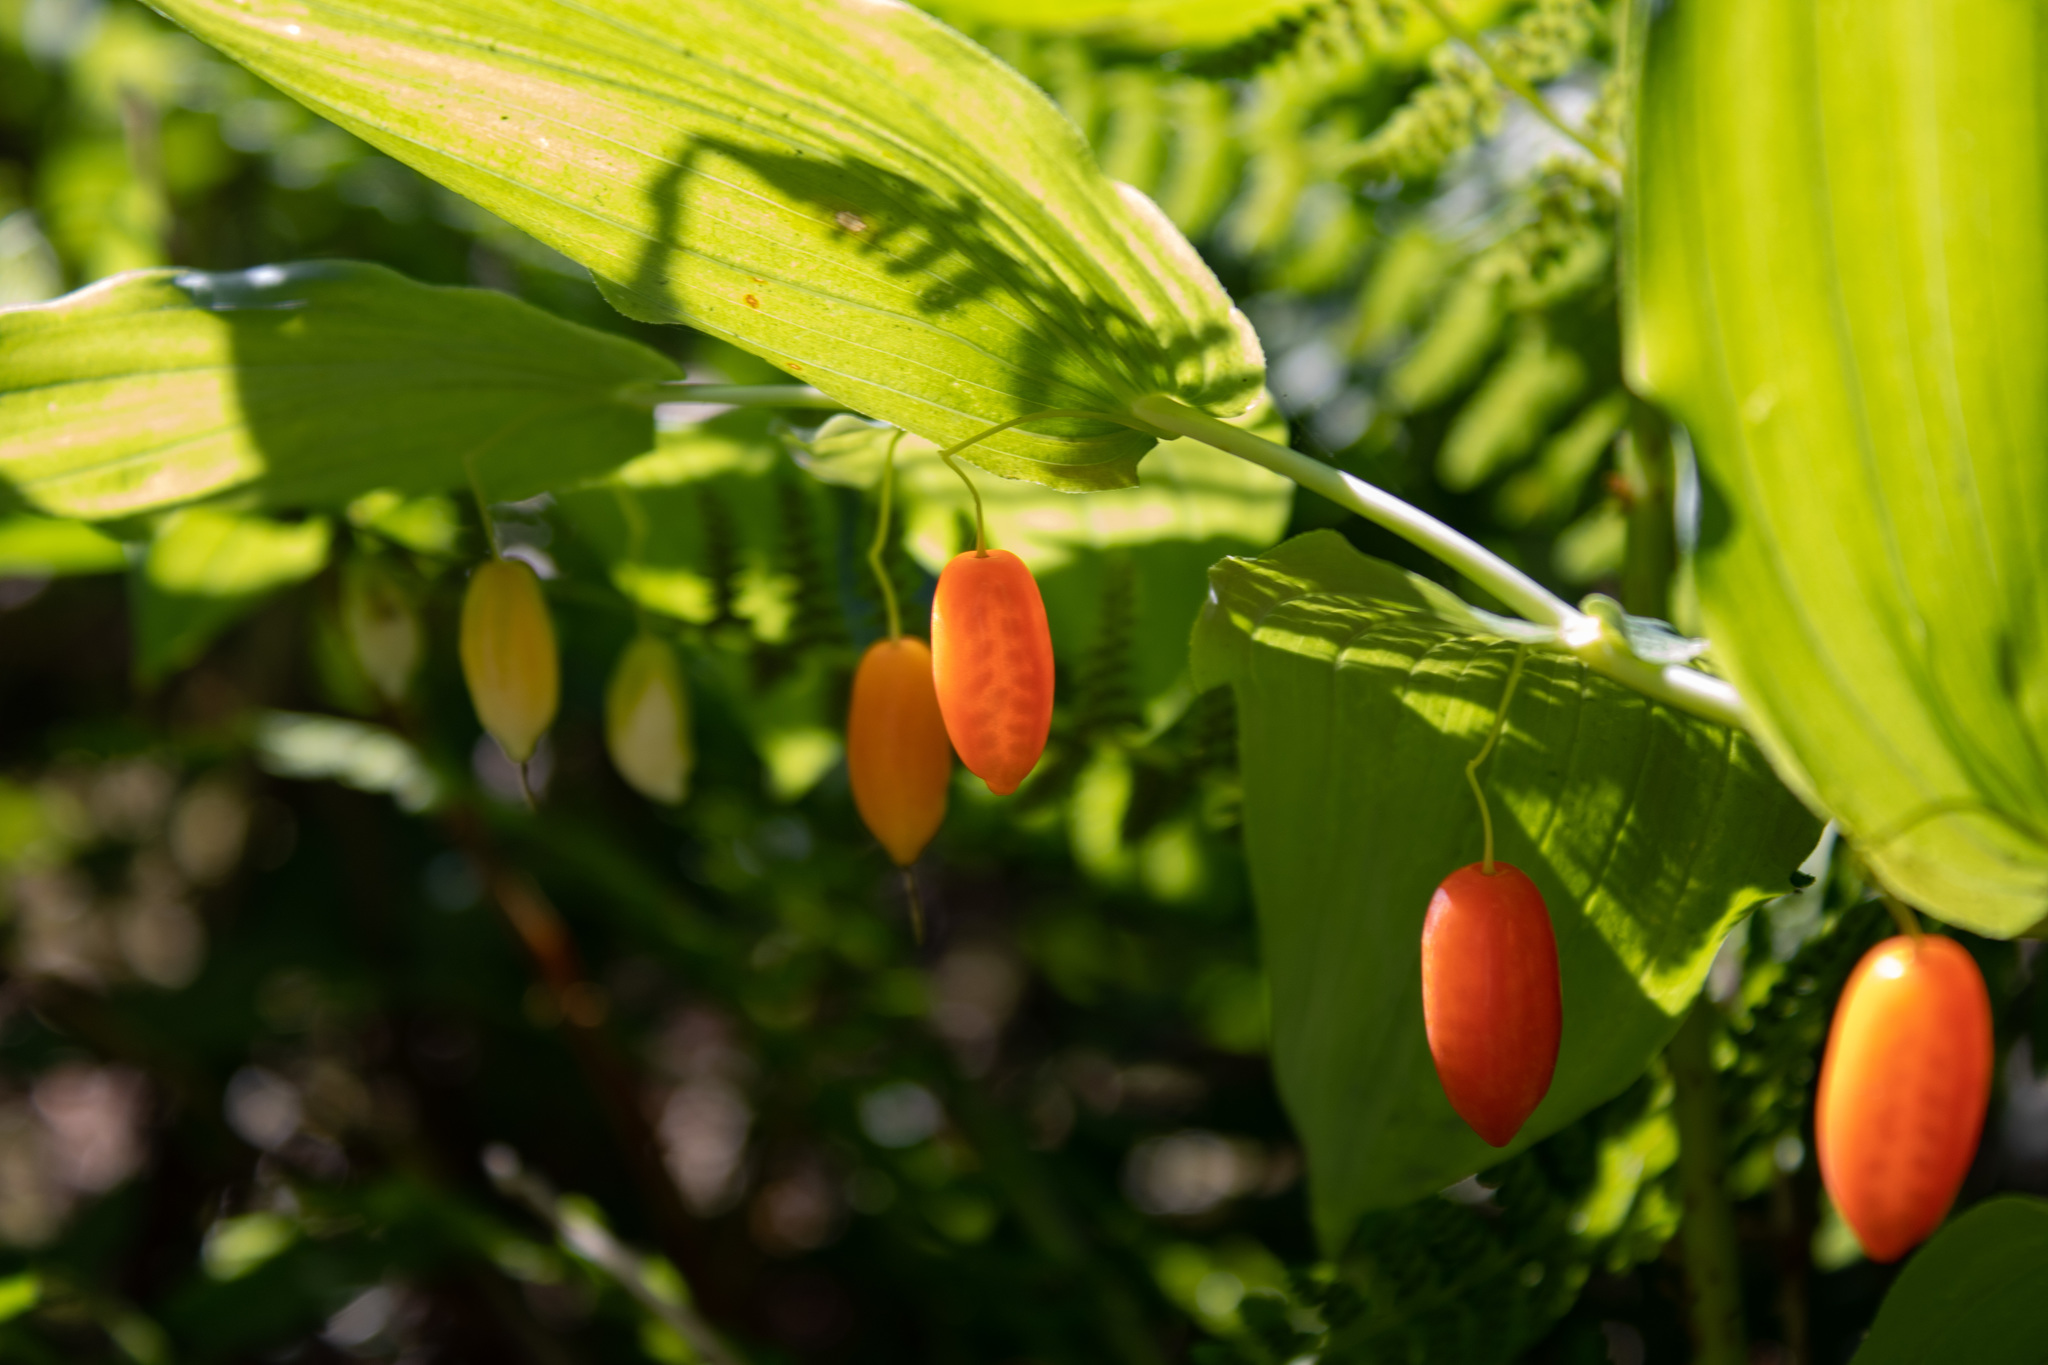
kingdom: Plantae
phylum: Tracheophyta
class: Liliopsida
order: Liliales
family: Liliaceae
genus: Streptopus
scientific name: Streptopus amplexifolius
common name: Clasp twisted stalk
